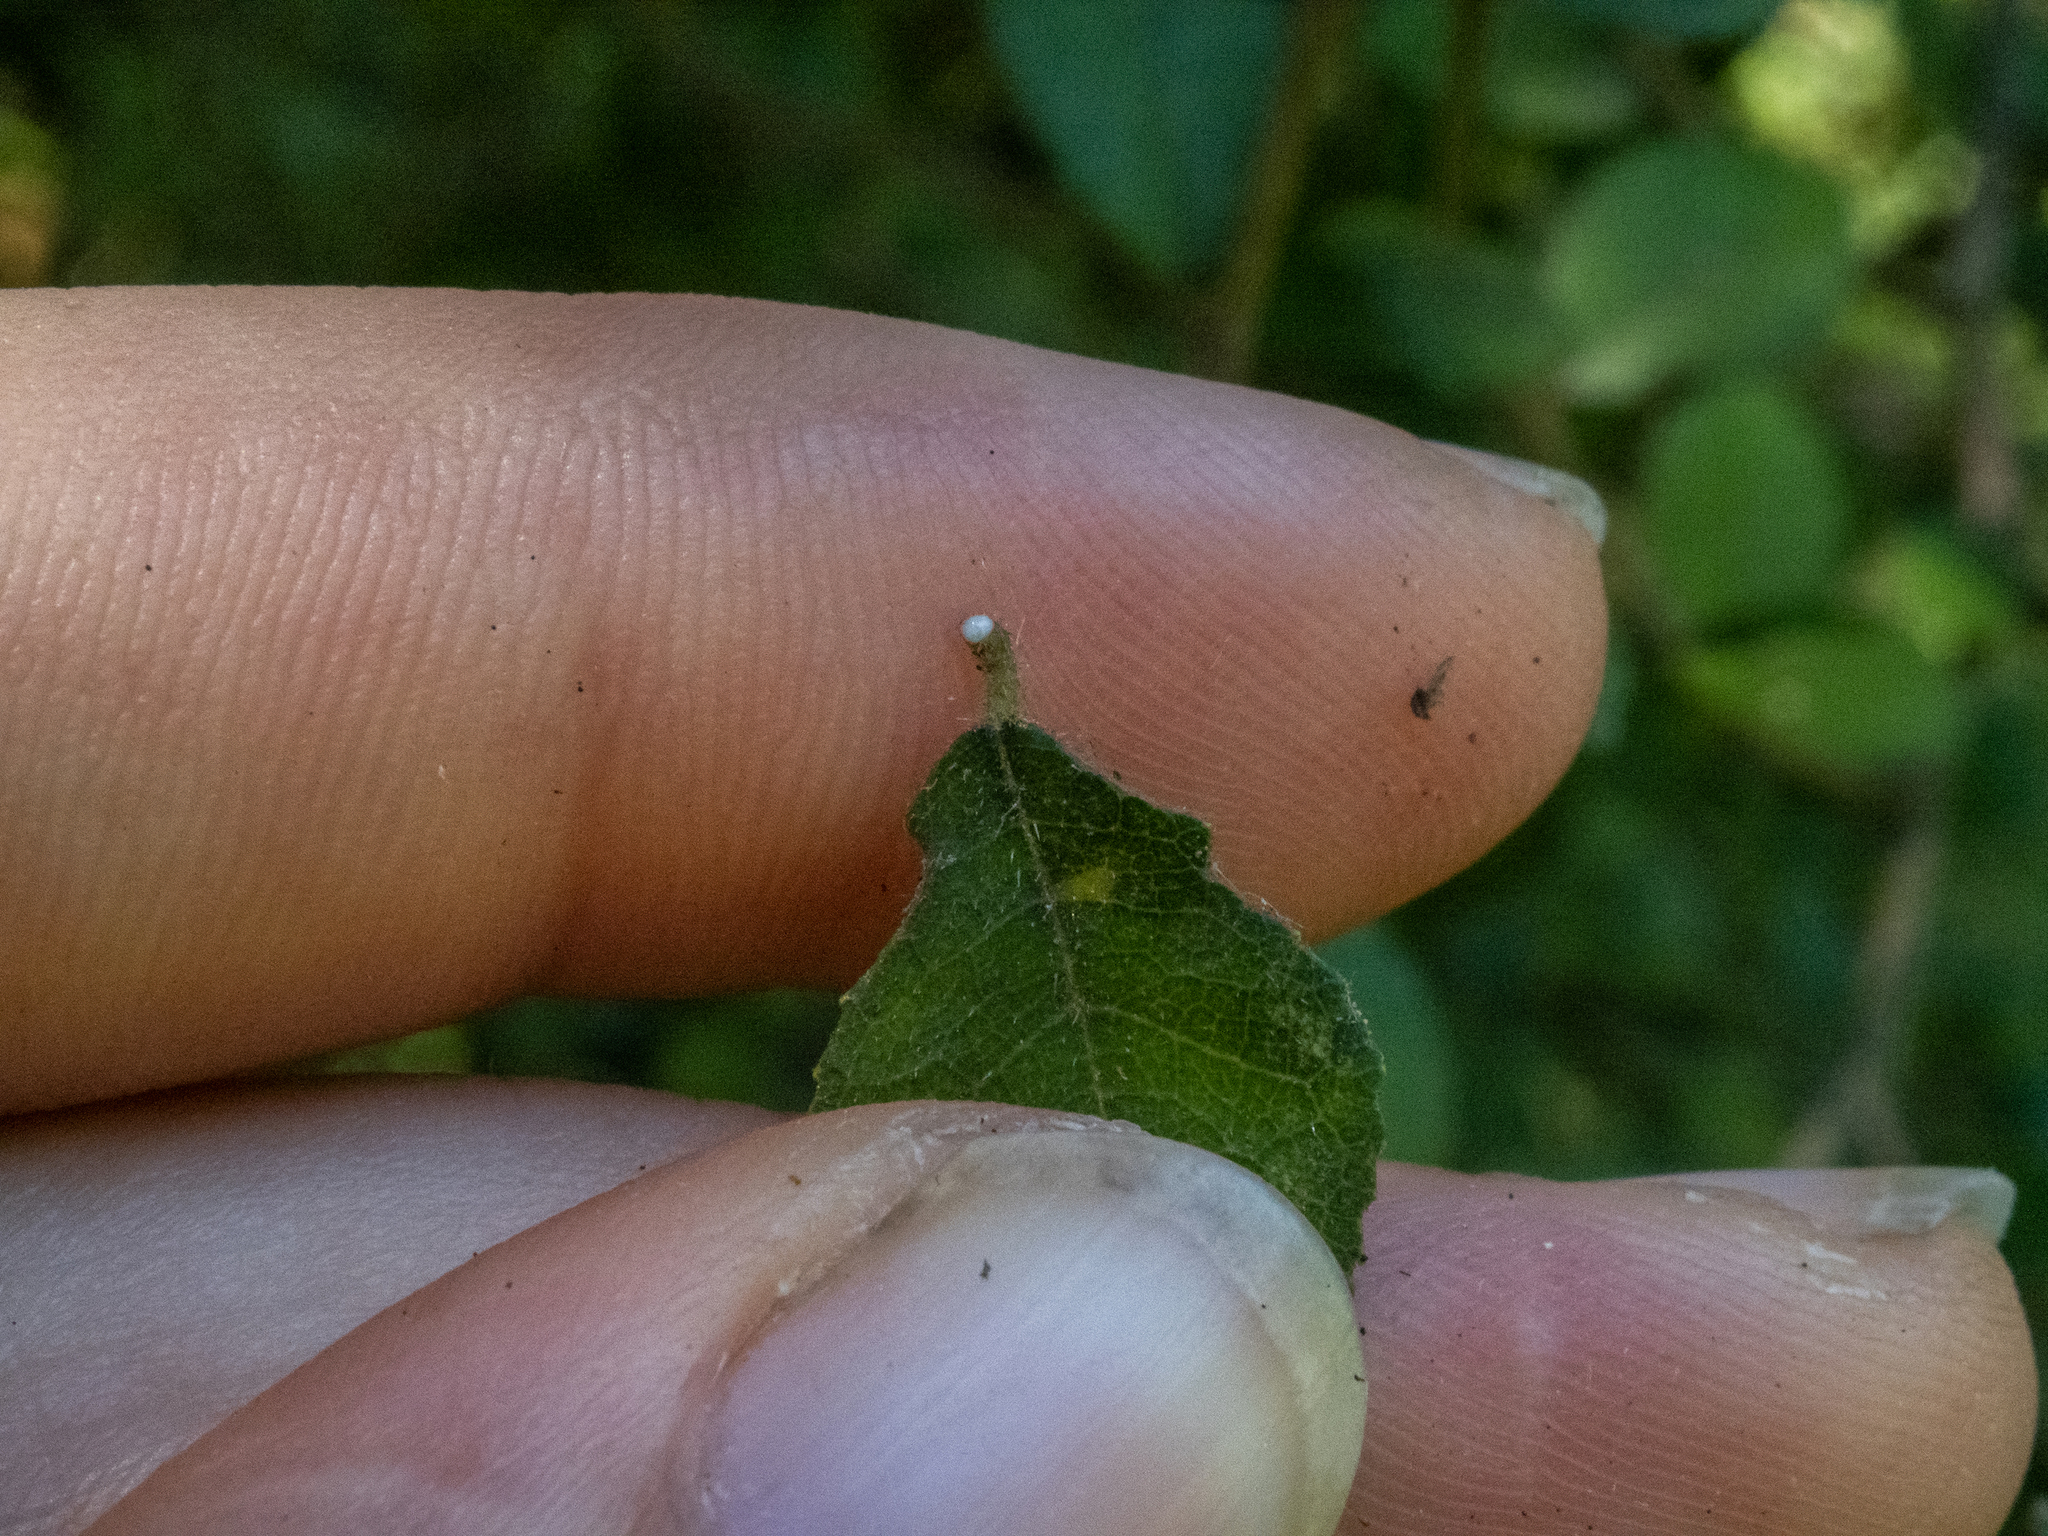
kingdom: Plantae
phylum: Tracheophyta
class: Magnoliopsida
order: Rosales
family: Moraceae
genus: Paratrophis
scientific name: Paratrophis microphylla
